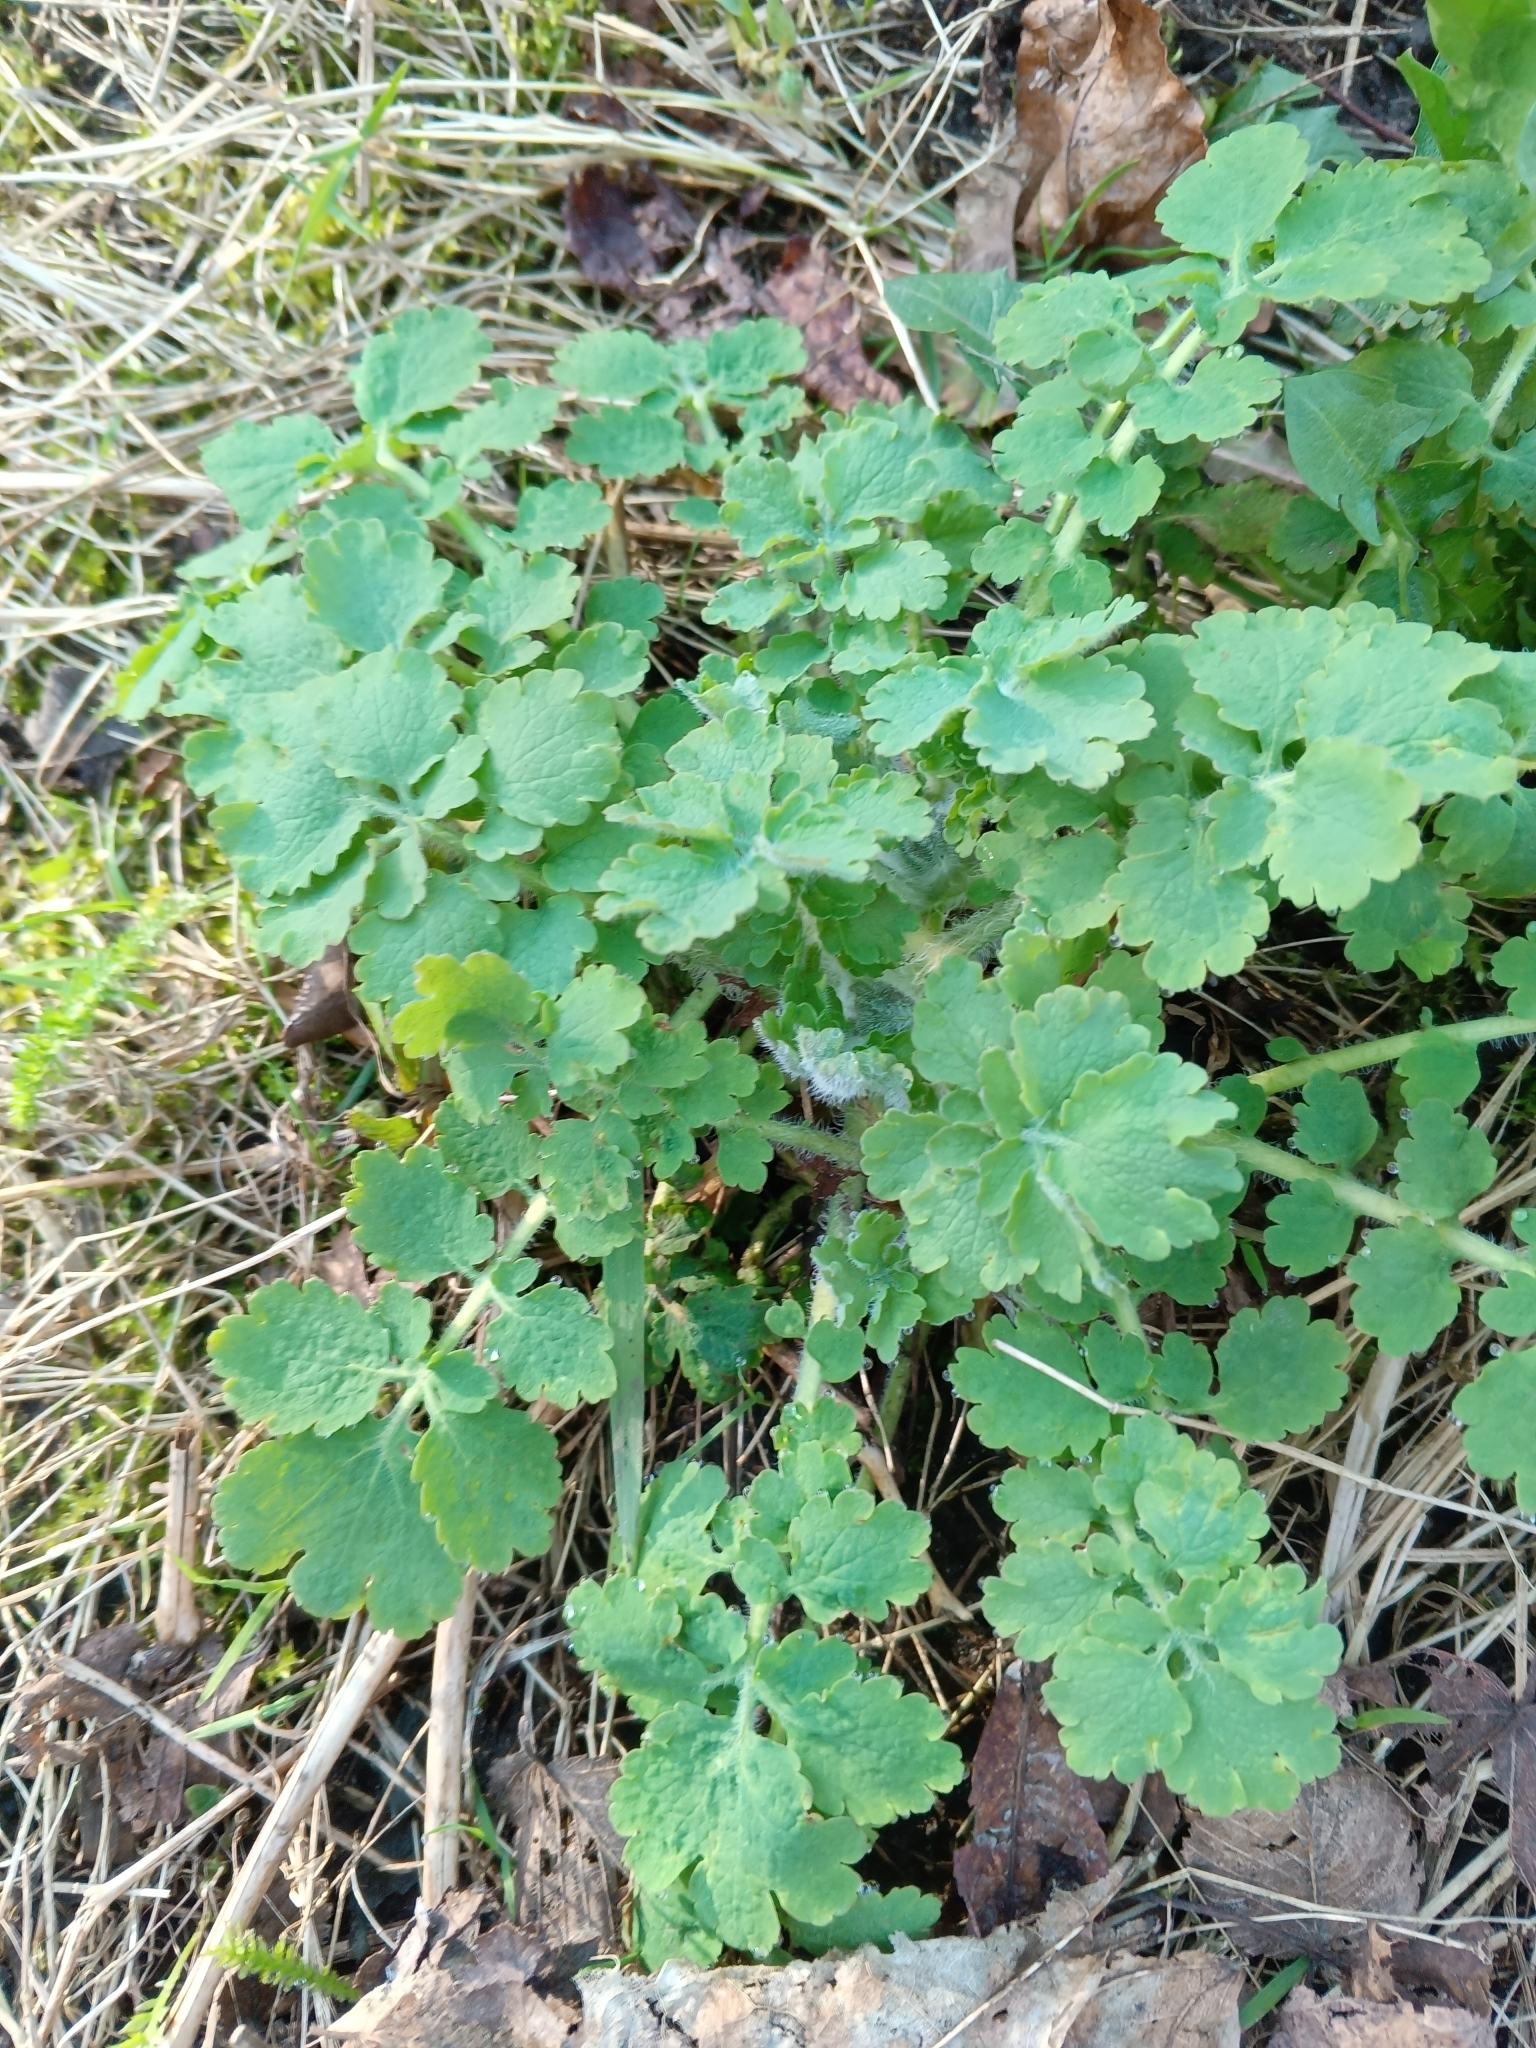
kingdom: Plantae
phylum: Tracheophyta
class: Magnoliopsida
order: Ranunculales
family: Papaveraceae
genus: Chelidonium
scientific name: Chelidonium majus
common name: Greater celandine
